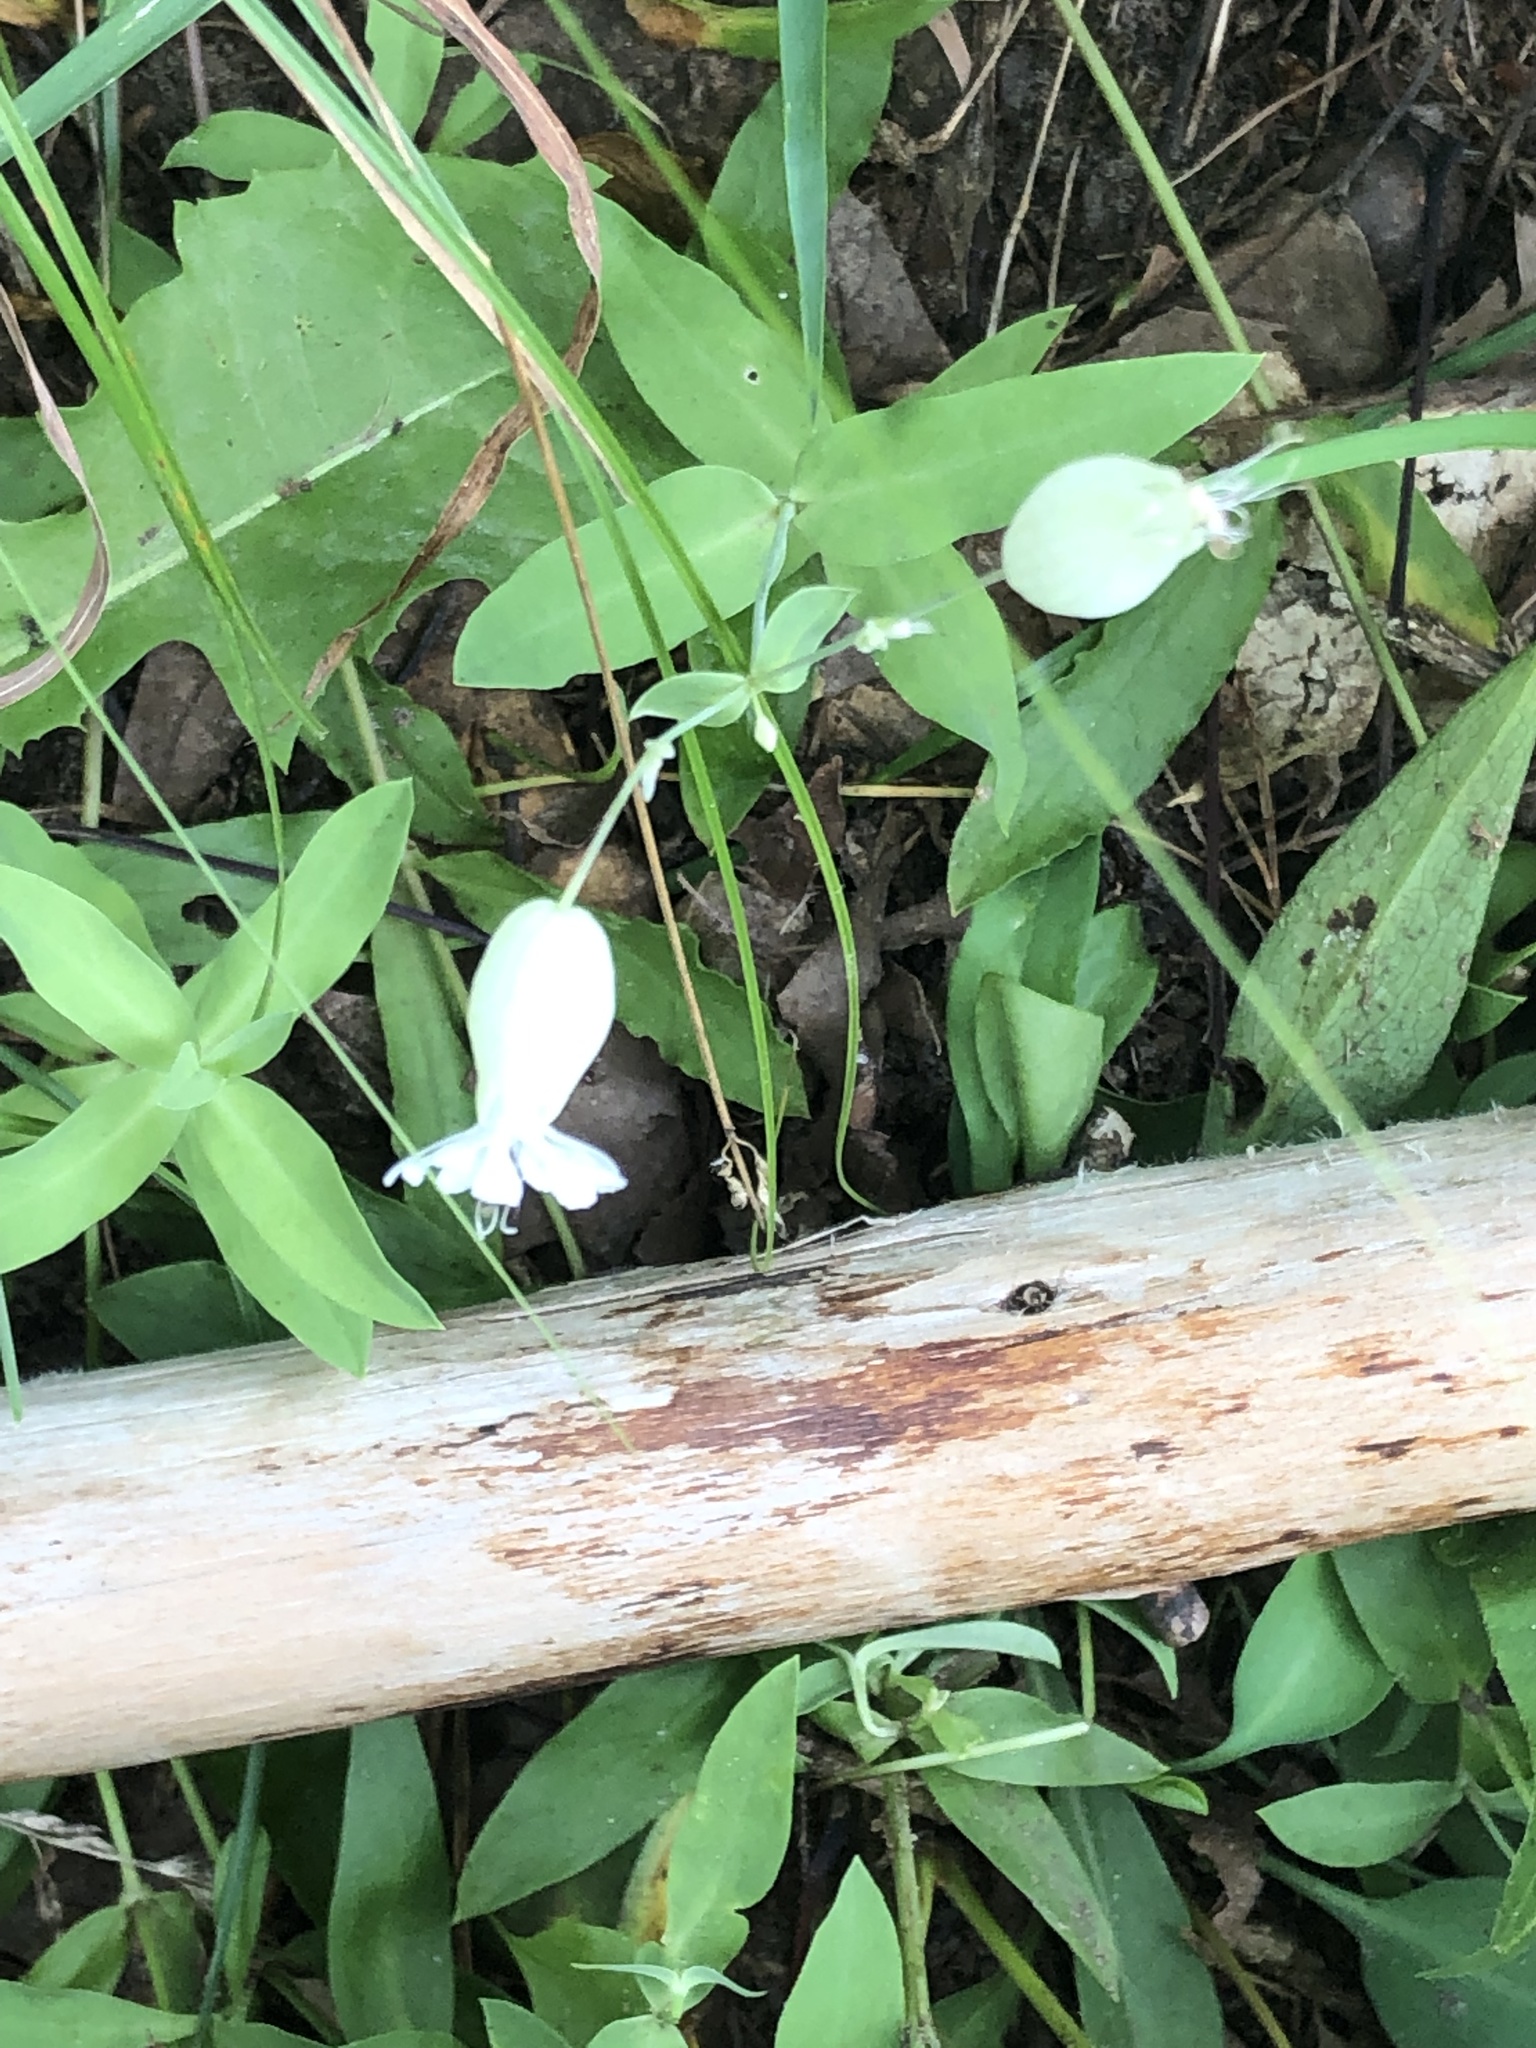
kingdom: Plantae
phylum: Tracheophyta
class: Magnoliopsida
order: Caryophyllales
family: Caryophyllaceae
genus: Silene
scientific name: Silene vulgaris
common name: Bladder campion
